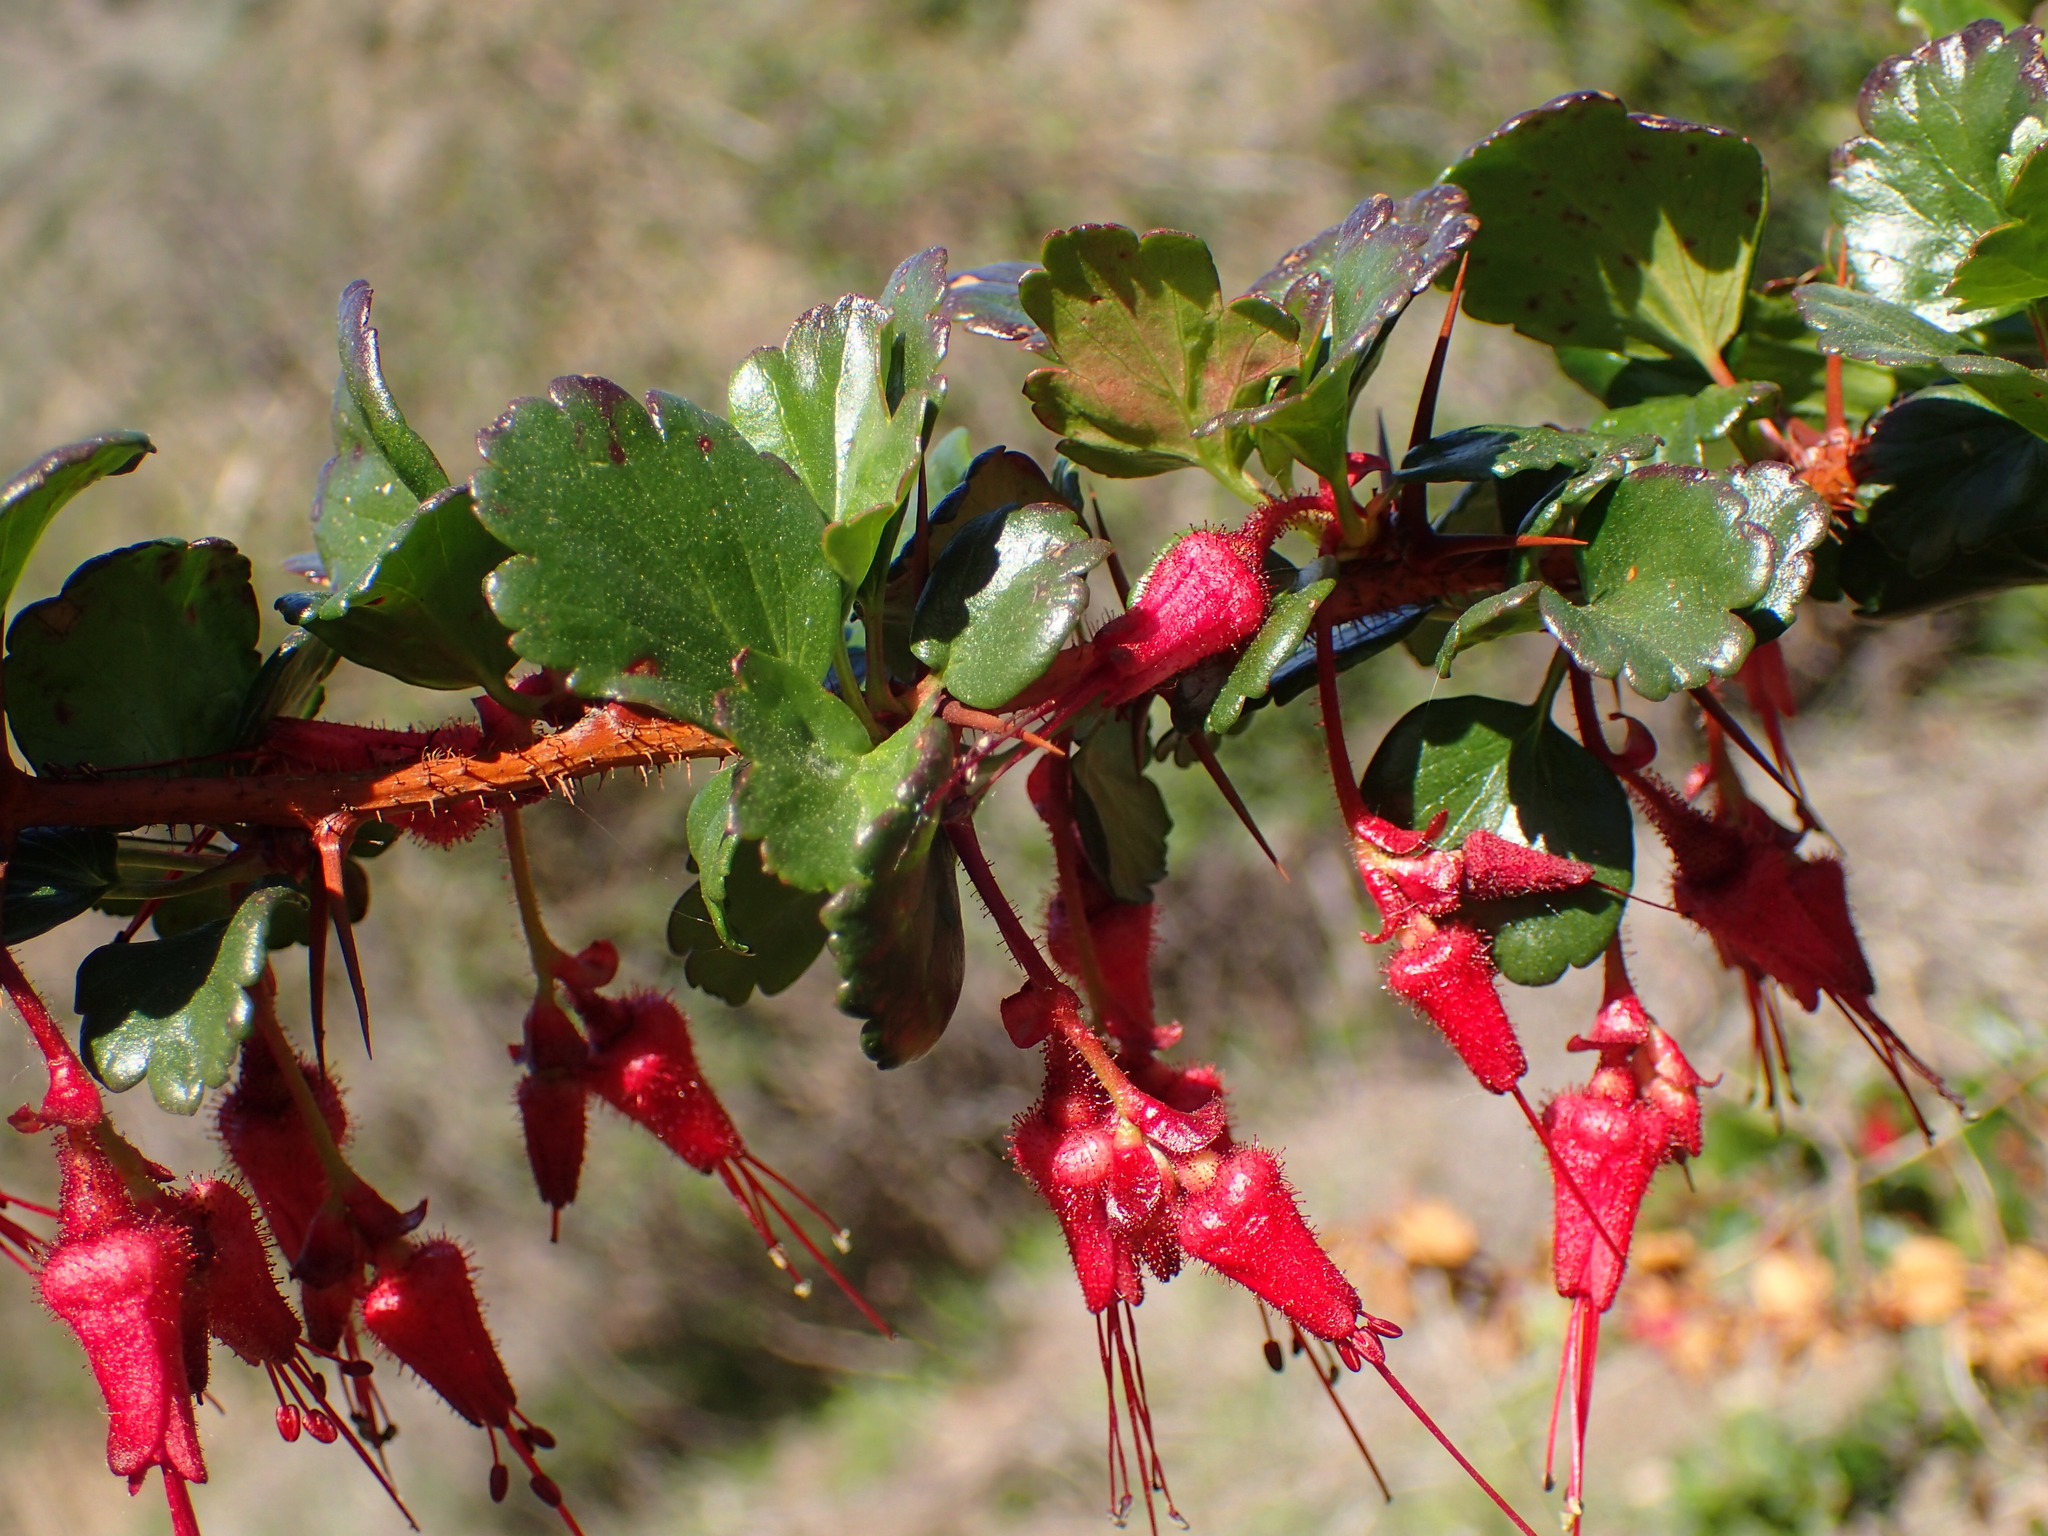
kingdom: Plantae
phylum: Tracheophyta
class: Magnoliopsida
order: Saxifragales
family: Grossulariaceae
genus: Ribes
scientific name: Ribes speciosum
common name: Fuchsia-flower gooseberry
